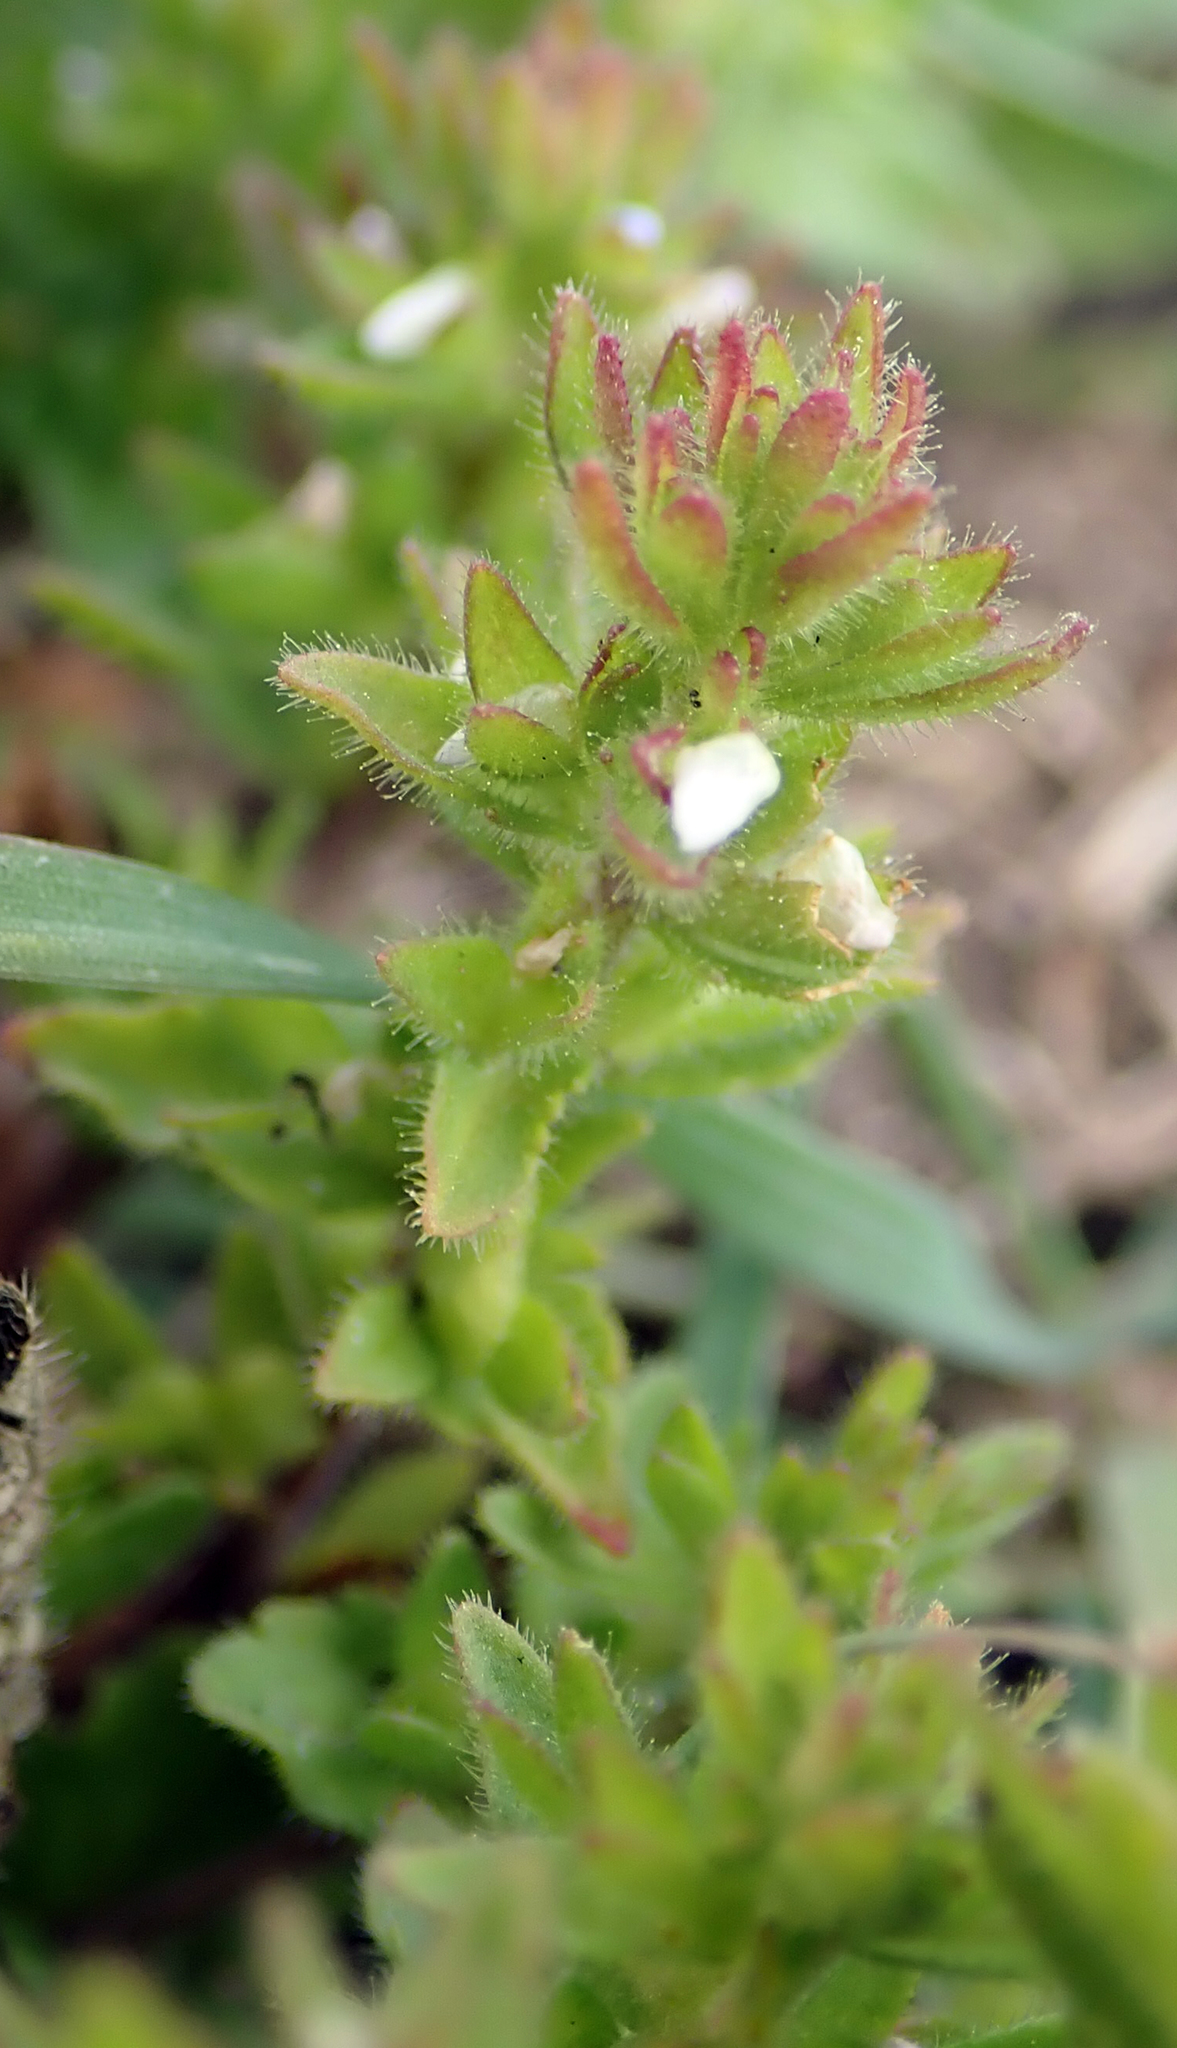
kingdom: Plantae
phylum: Tracheophyta
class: Magnoliopsida
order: Lamiales
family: Plantaginaceae
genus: Veronica
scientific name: Veronica arvensis
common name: Corn speedwell
